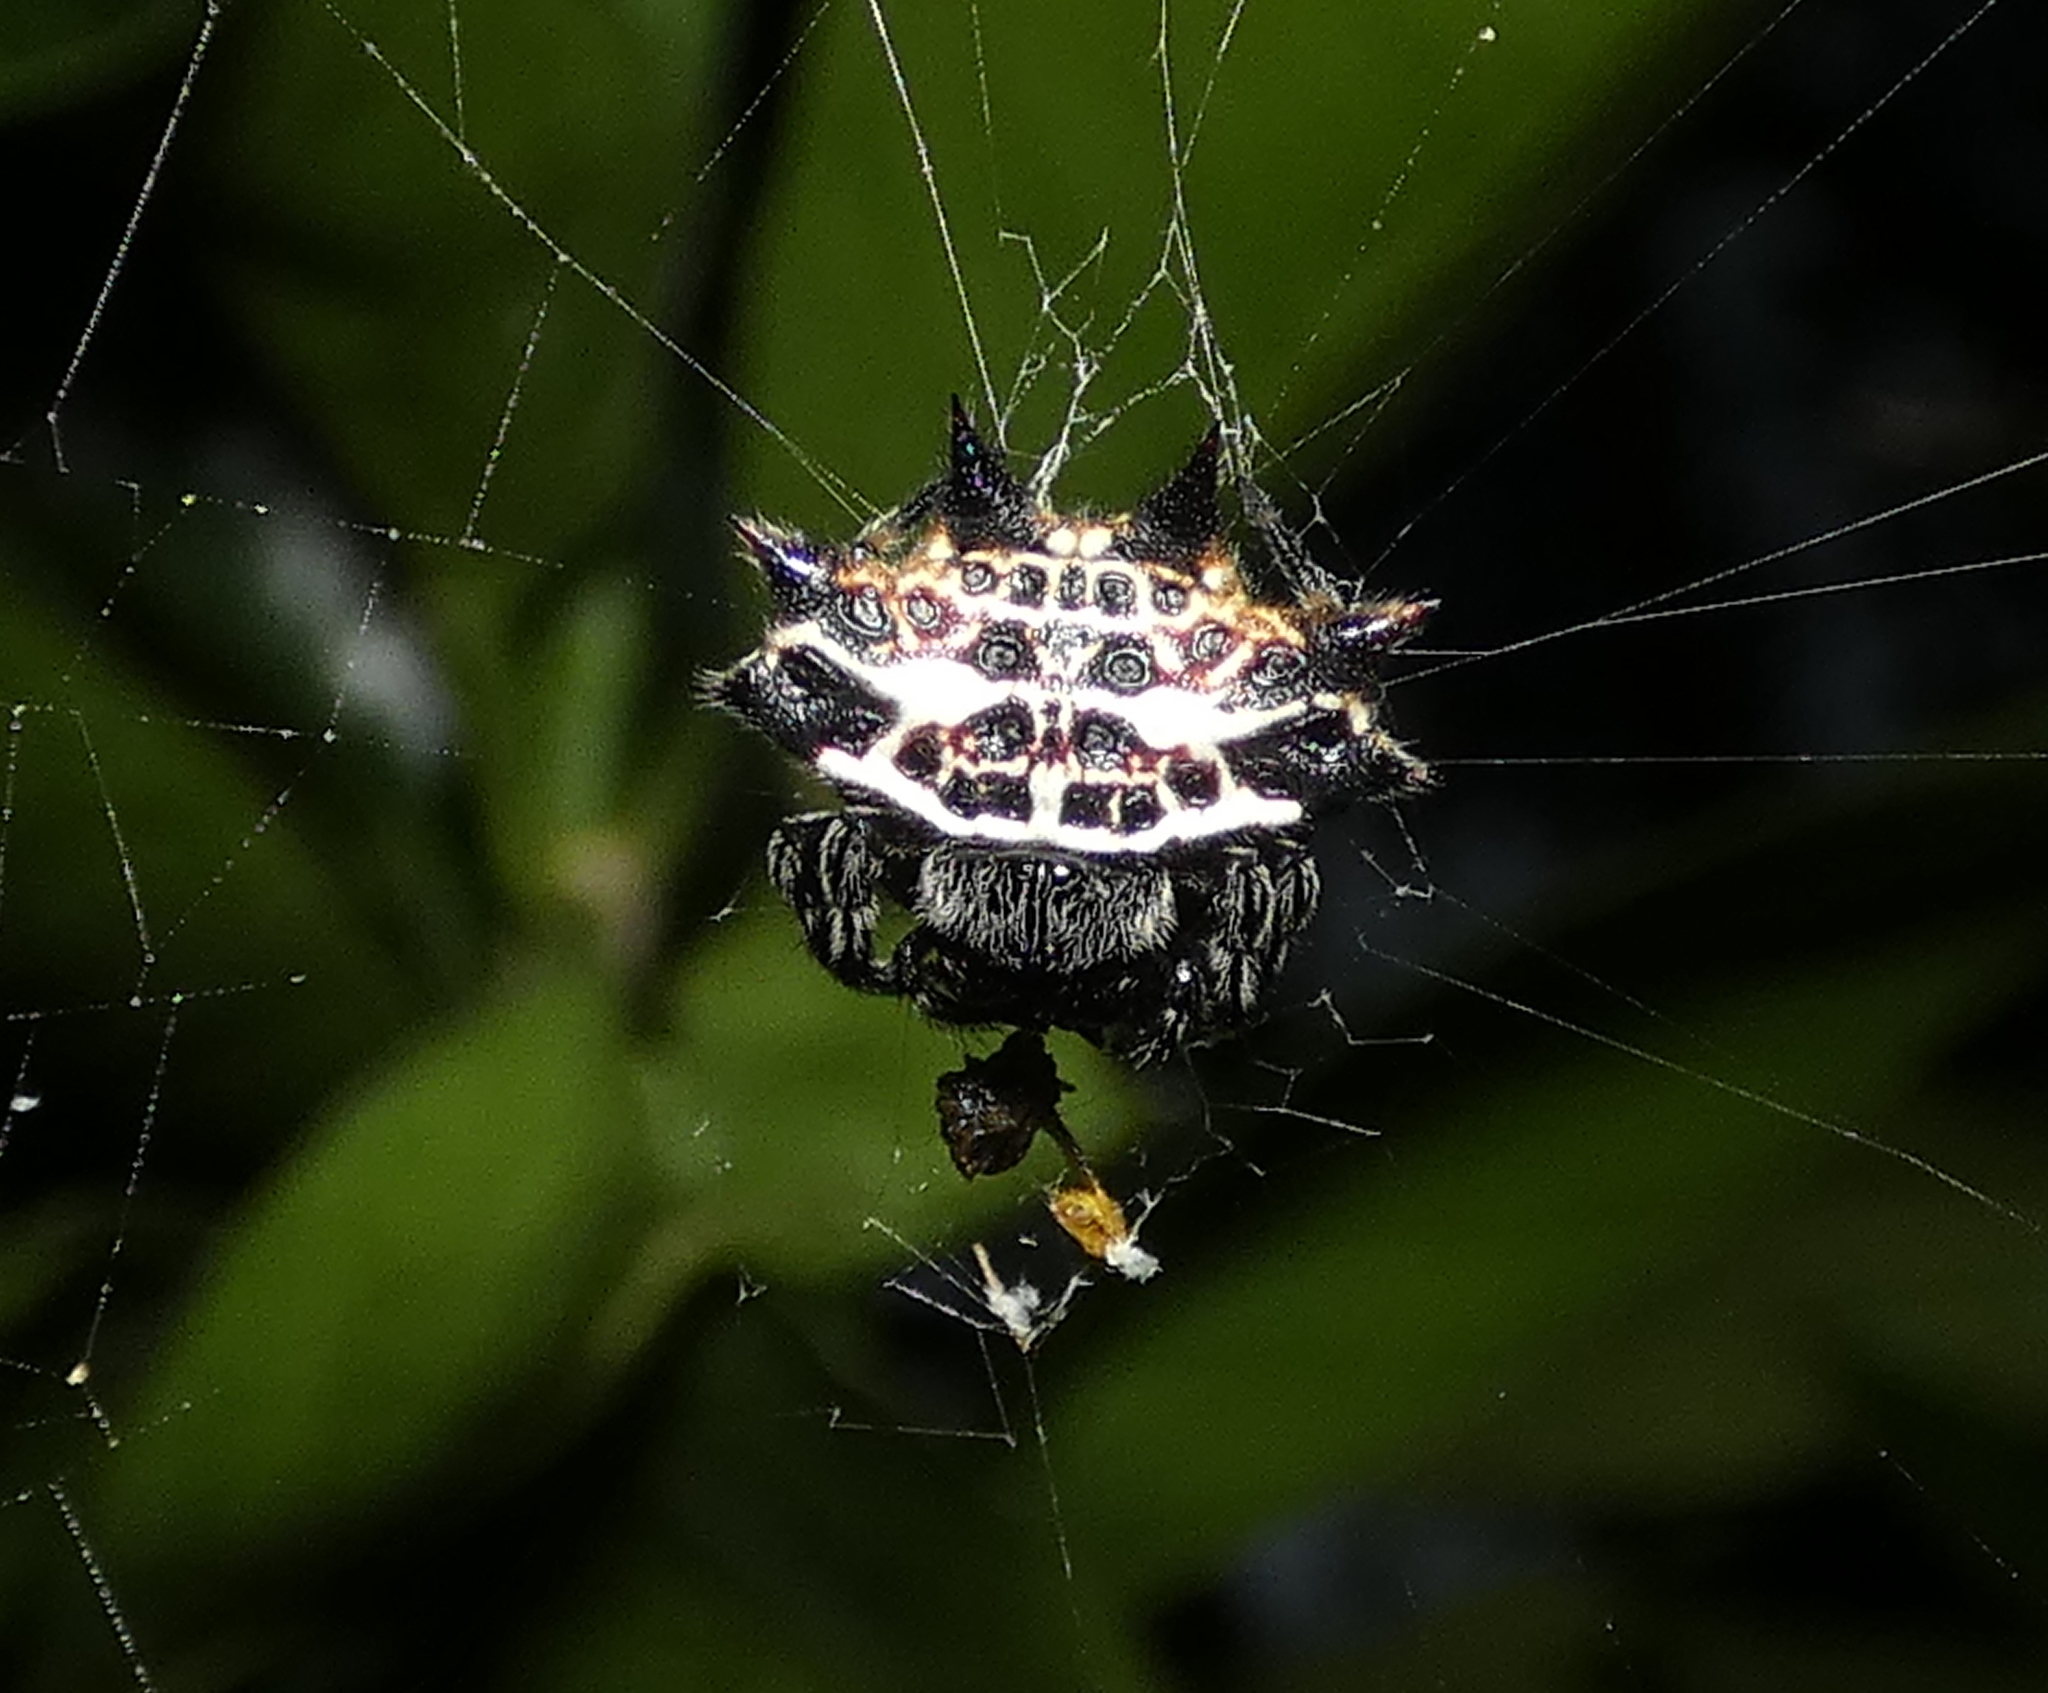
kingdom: Animalia
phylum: Arthropoda
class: Arachnida
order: Araneae
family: Araneidae
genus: Gasteracantha
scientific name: Gasteracantha cancriformis
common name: Orb weavers
